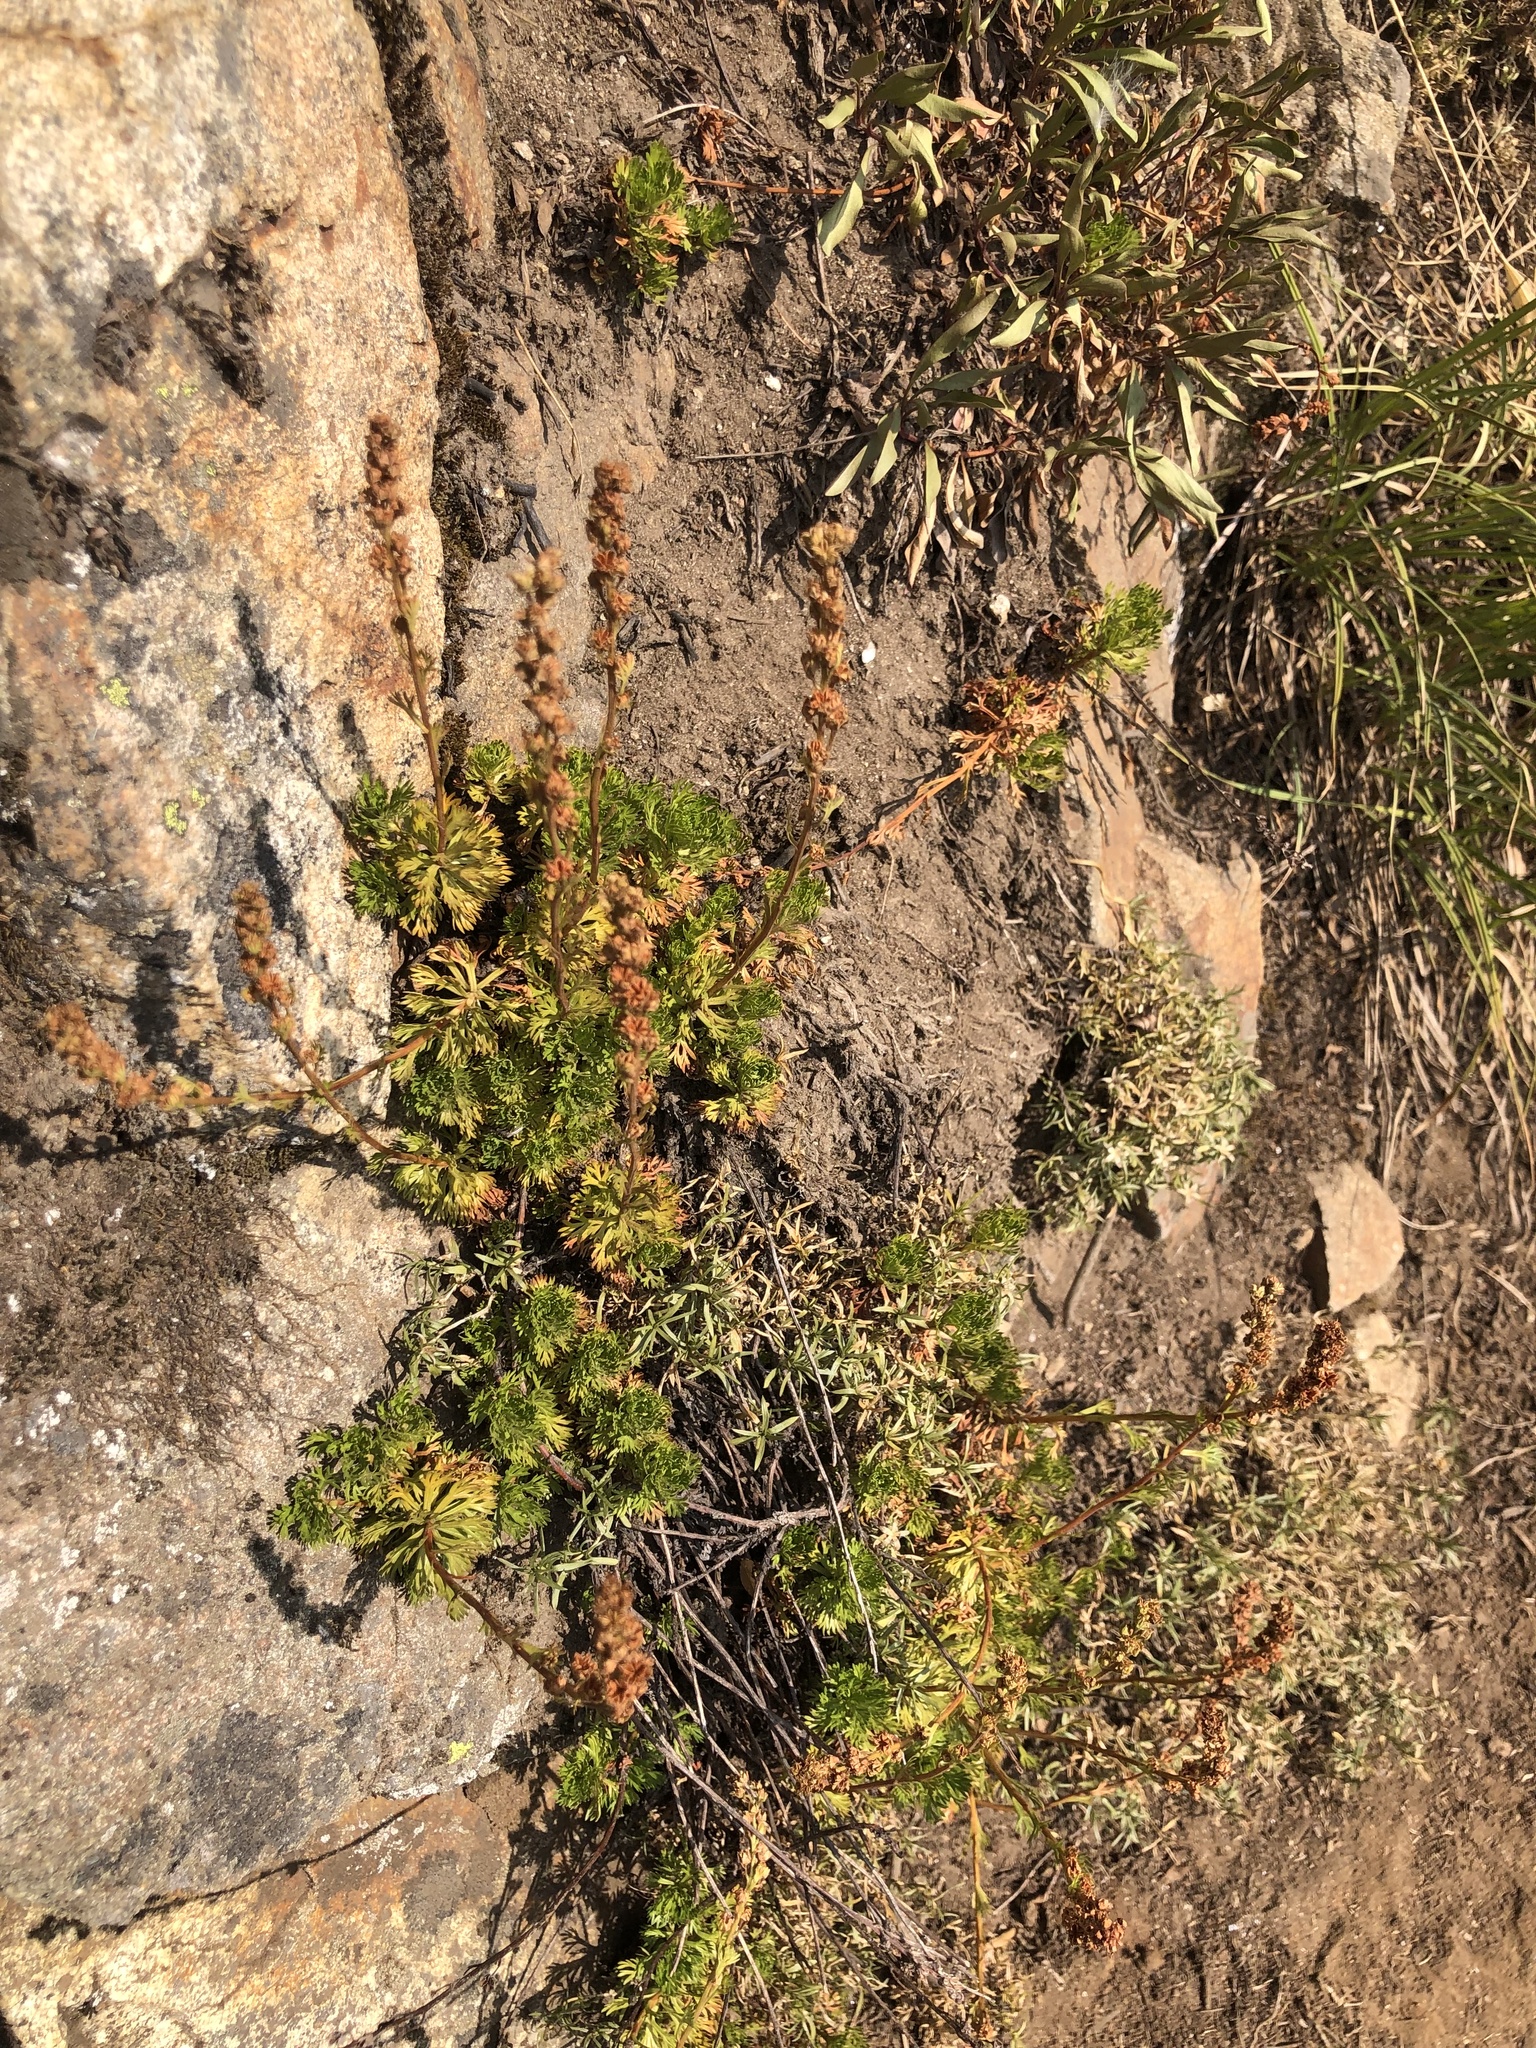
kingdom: Plantae
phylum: Tracheophyta
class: Magnoliopsida
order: Rosales
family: Rosaceae
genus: Luetkea
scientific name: Luetkea pectinata
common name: Partridgefoot
